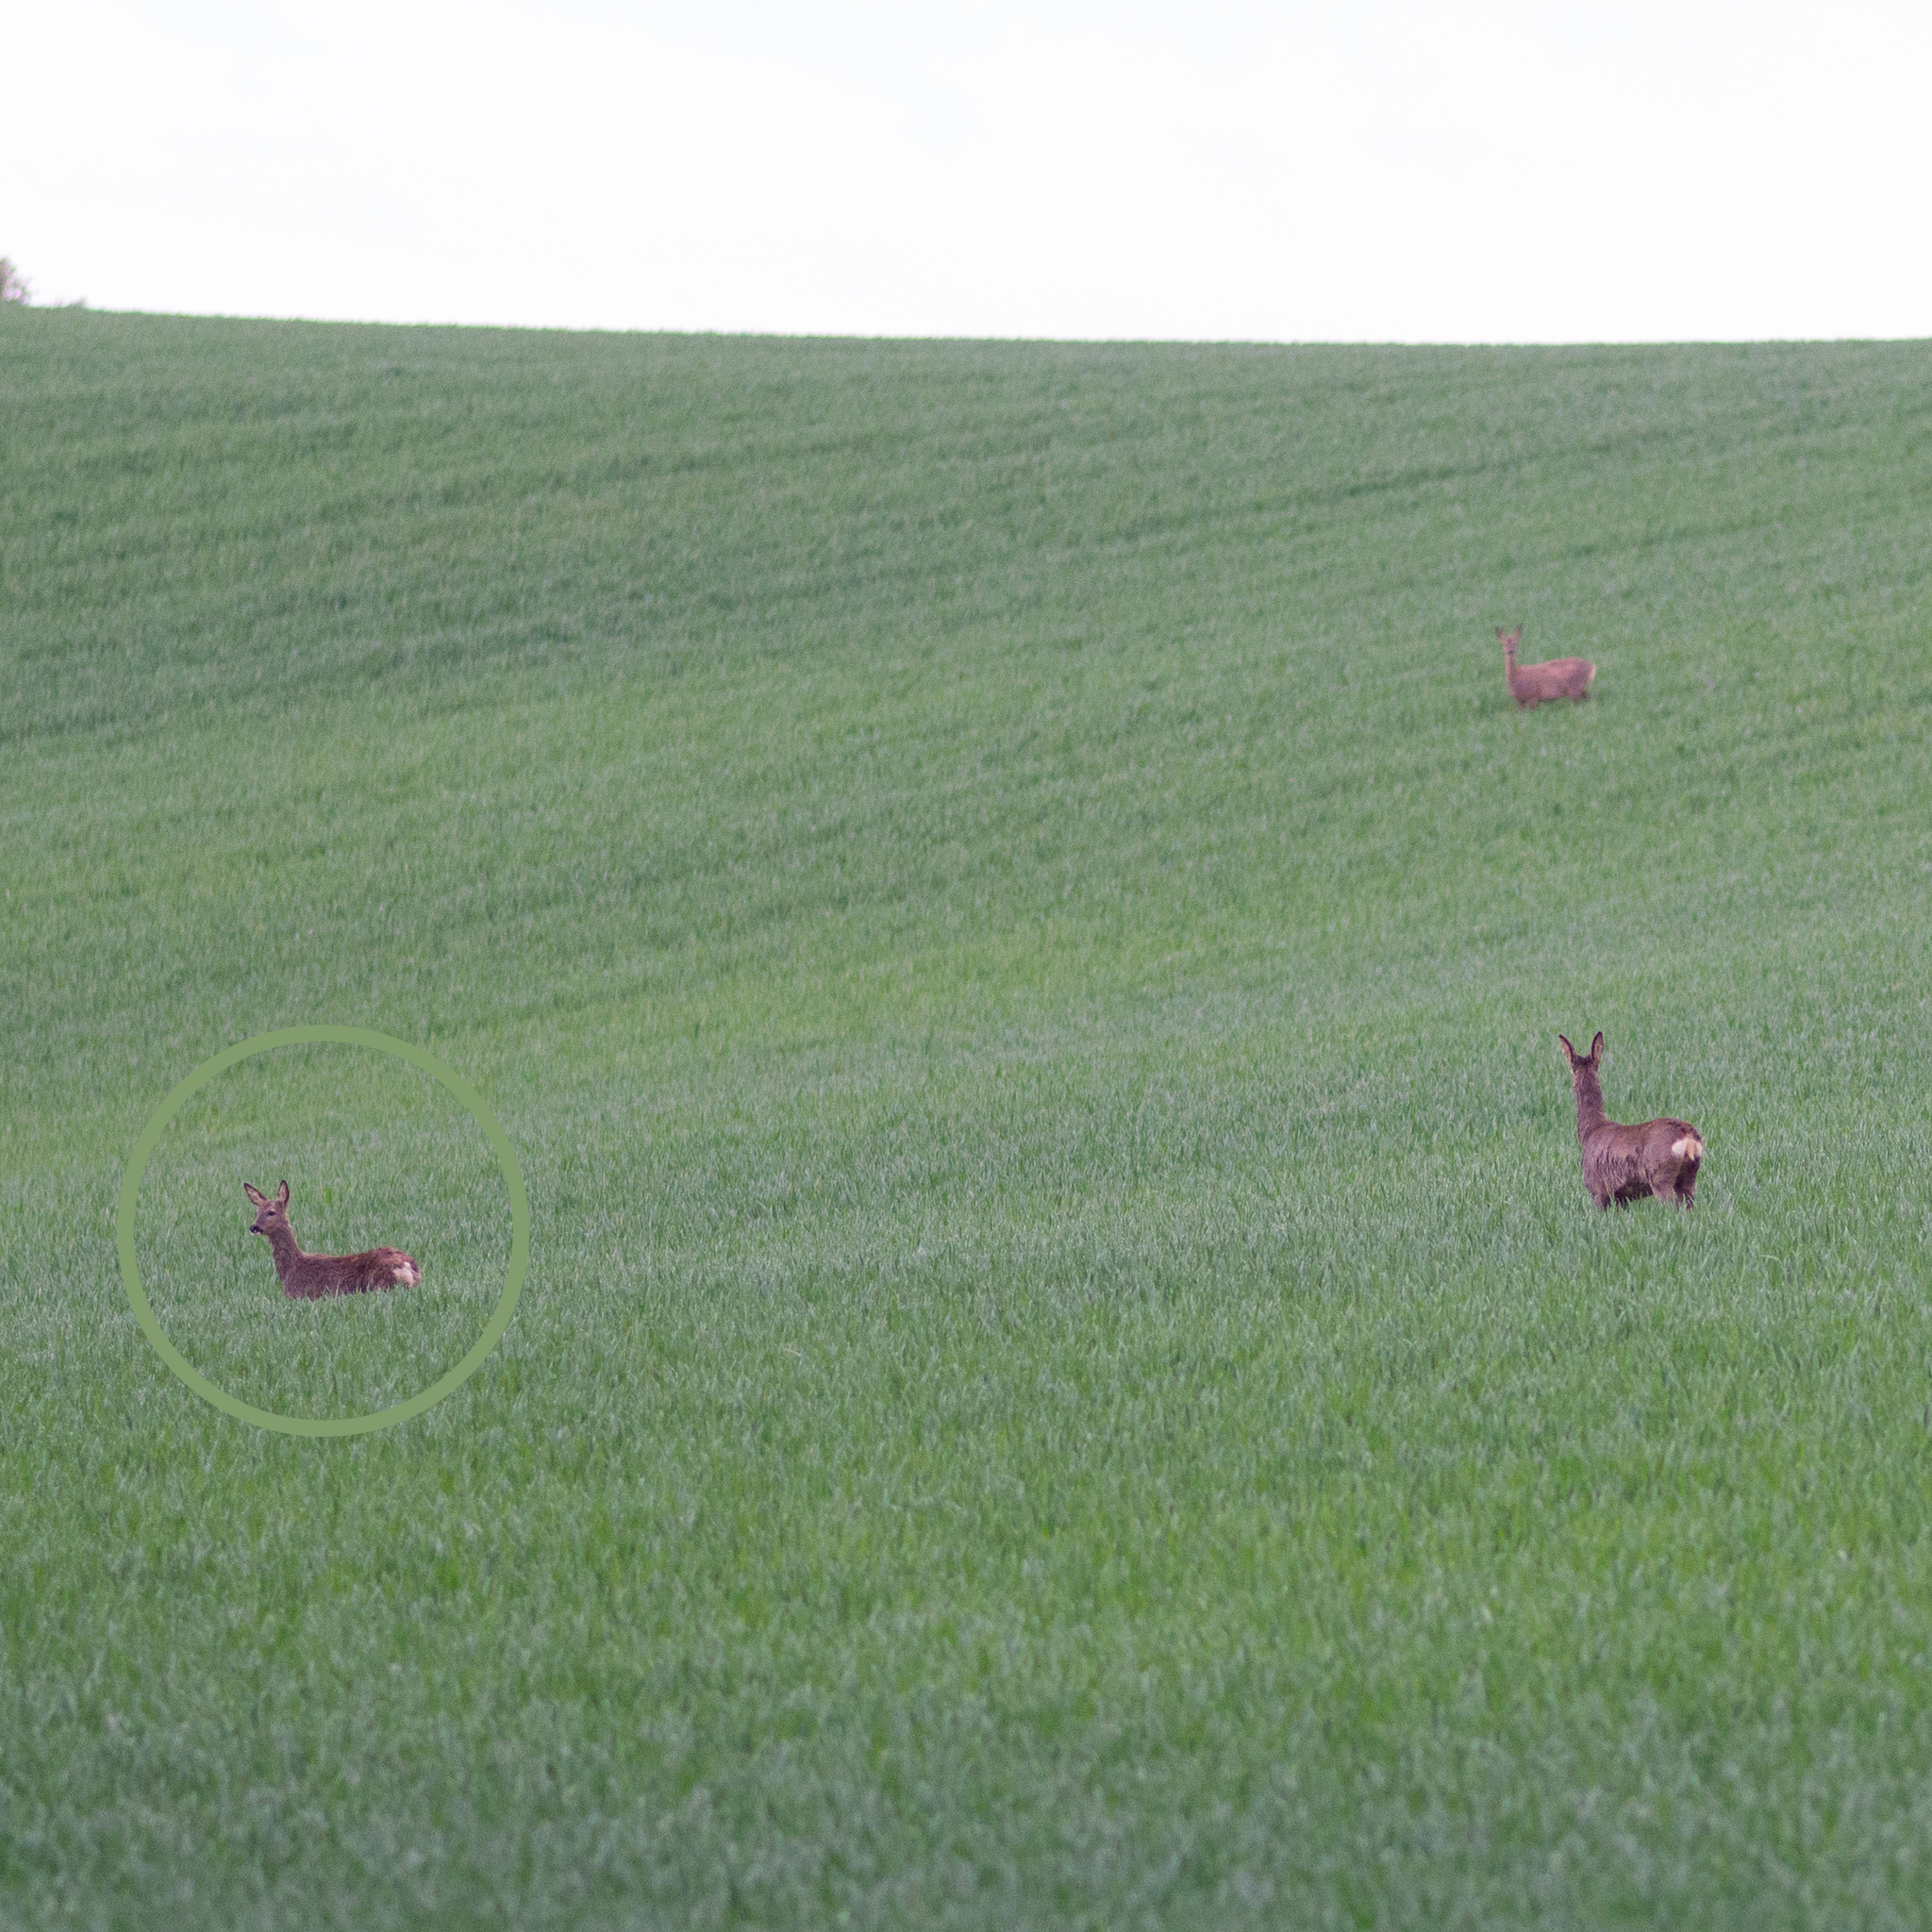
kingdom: Animalia
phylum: Chordata
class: Mammalia
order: Artiodactyla
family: Cervidae
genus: Capreolus
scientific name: Capreolus capreolus
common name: Western roe deer
